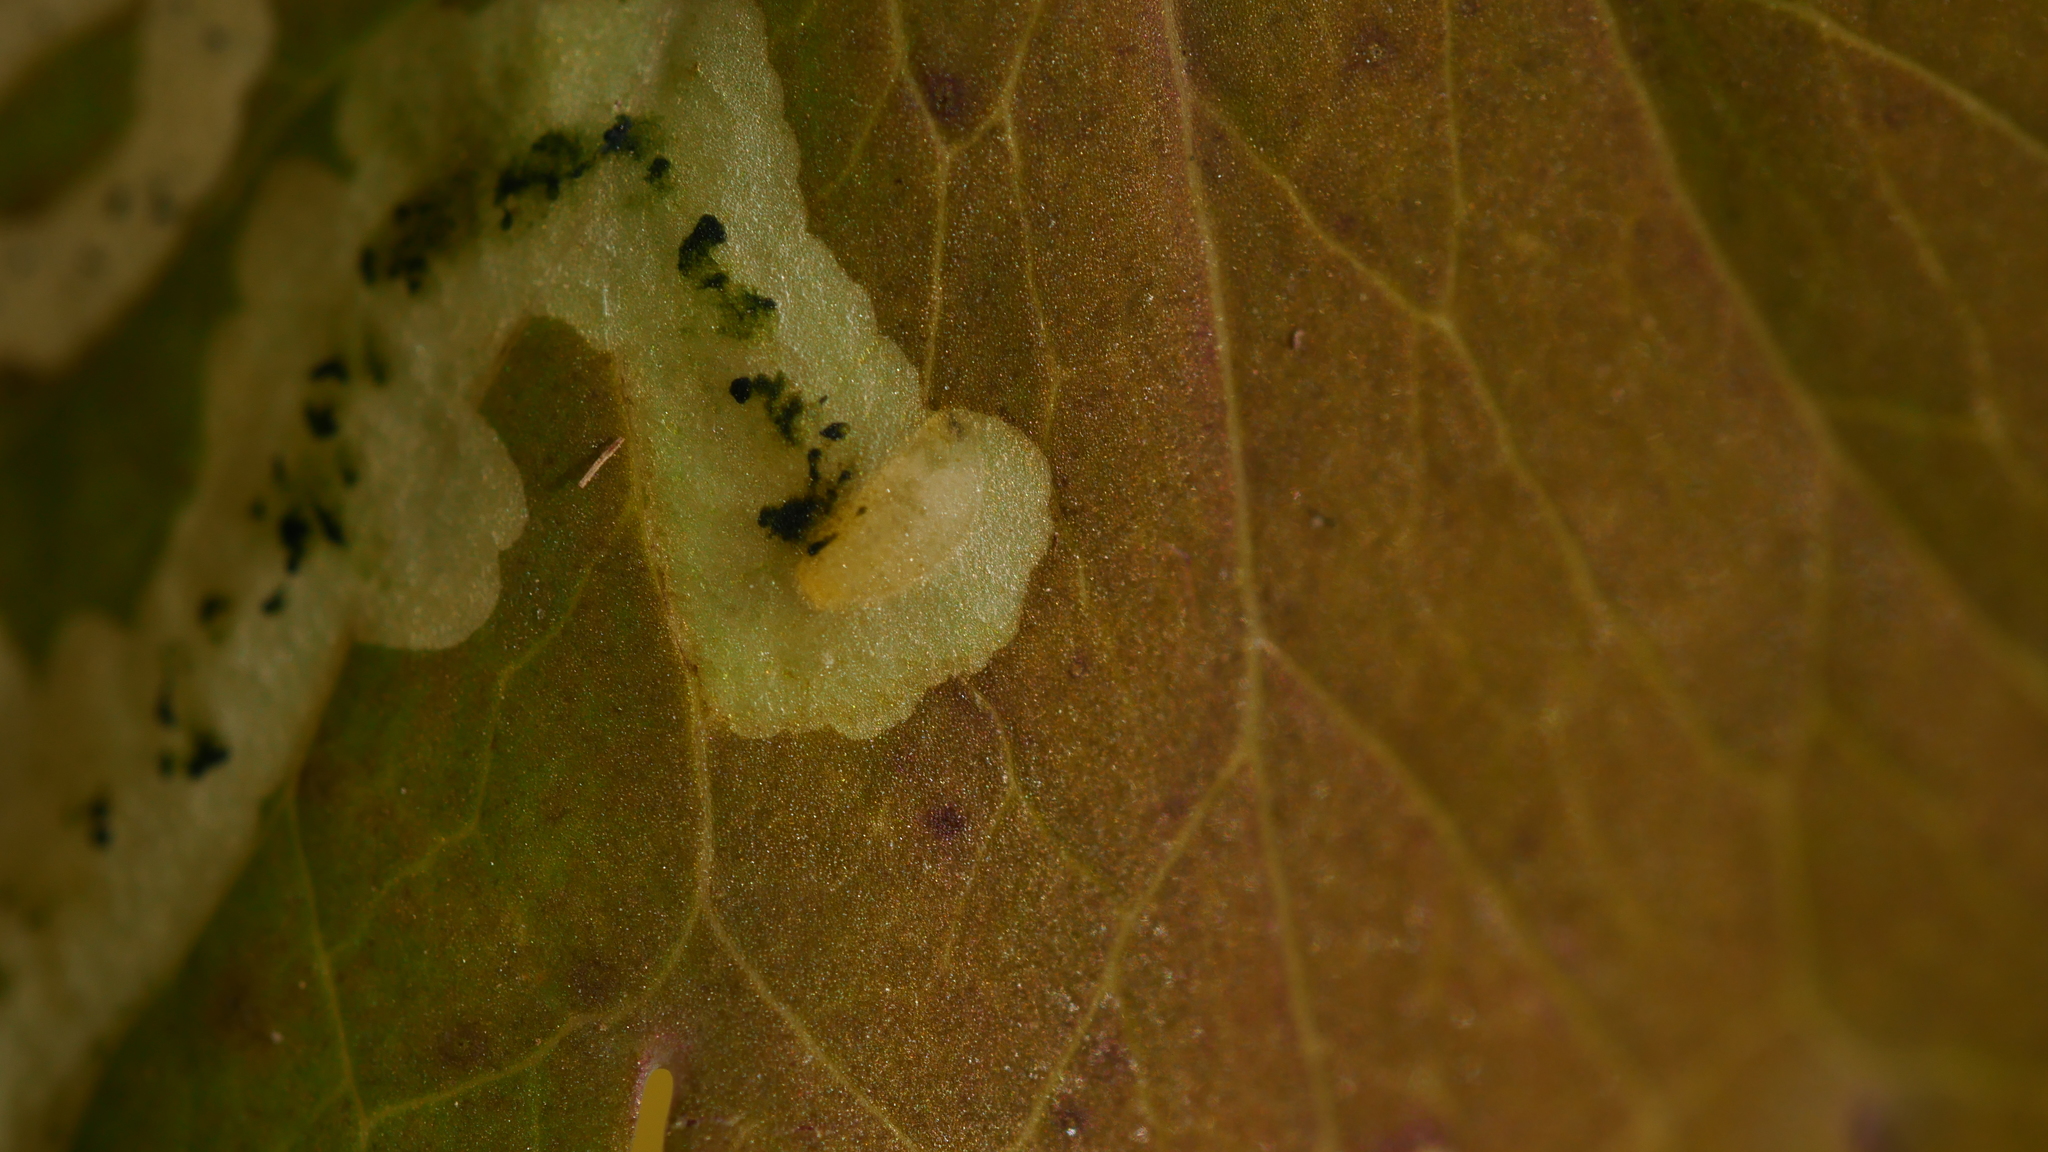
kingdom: Animalia
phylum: Arthropoda
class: Insecta
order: Diptera
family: Agromyzidae
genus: Phytomyza
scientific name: Phytomyza
